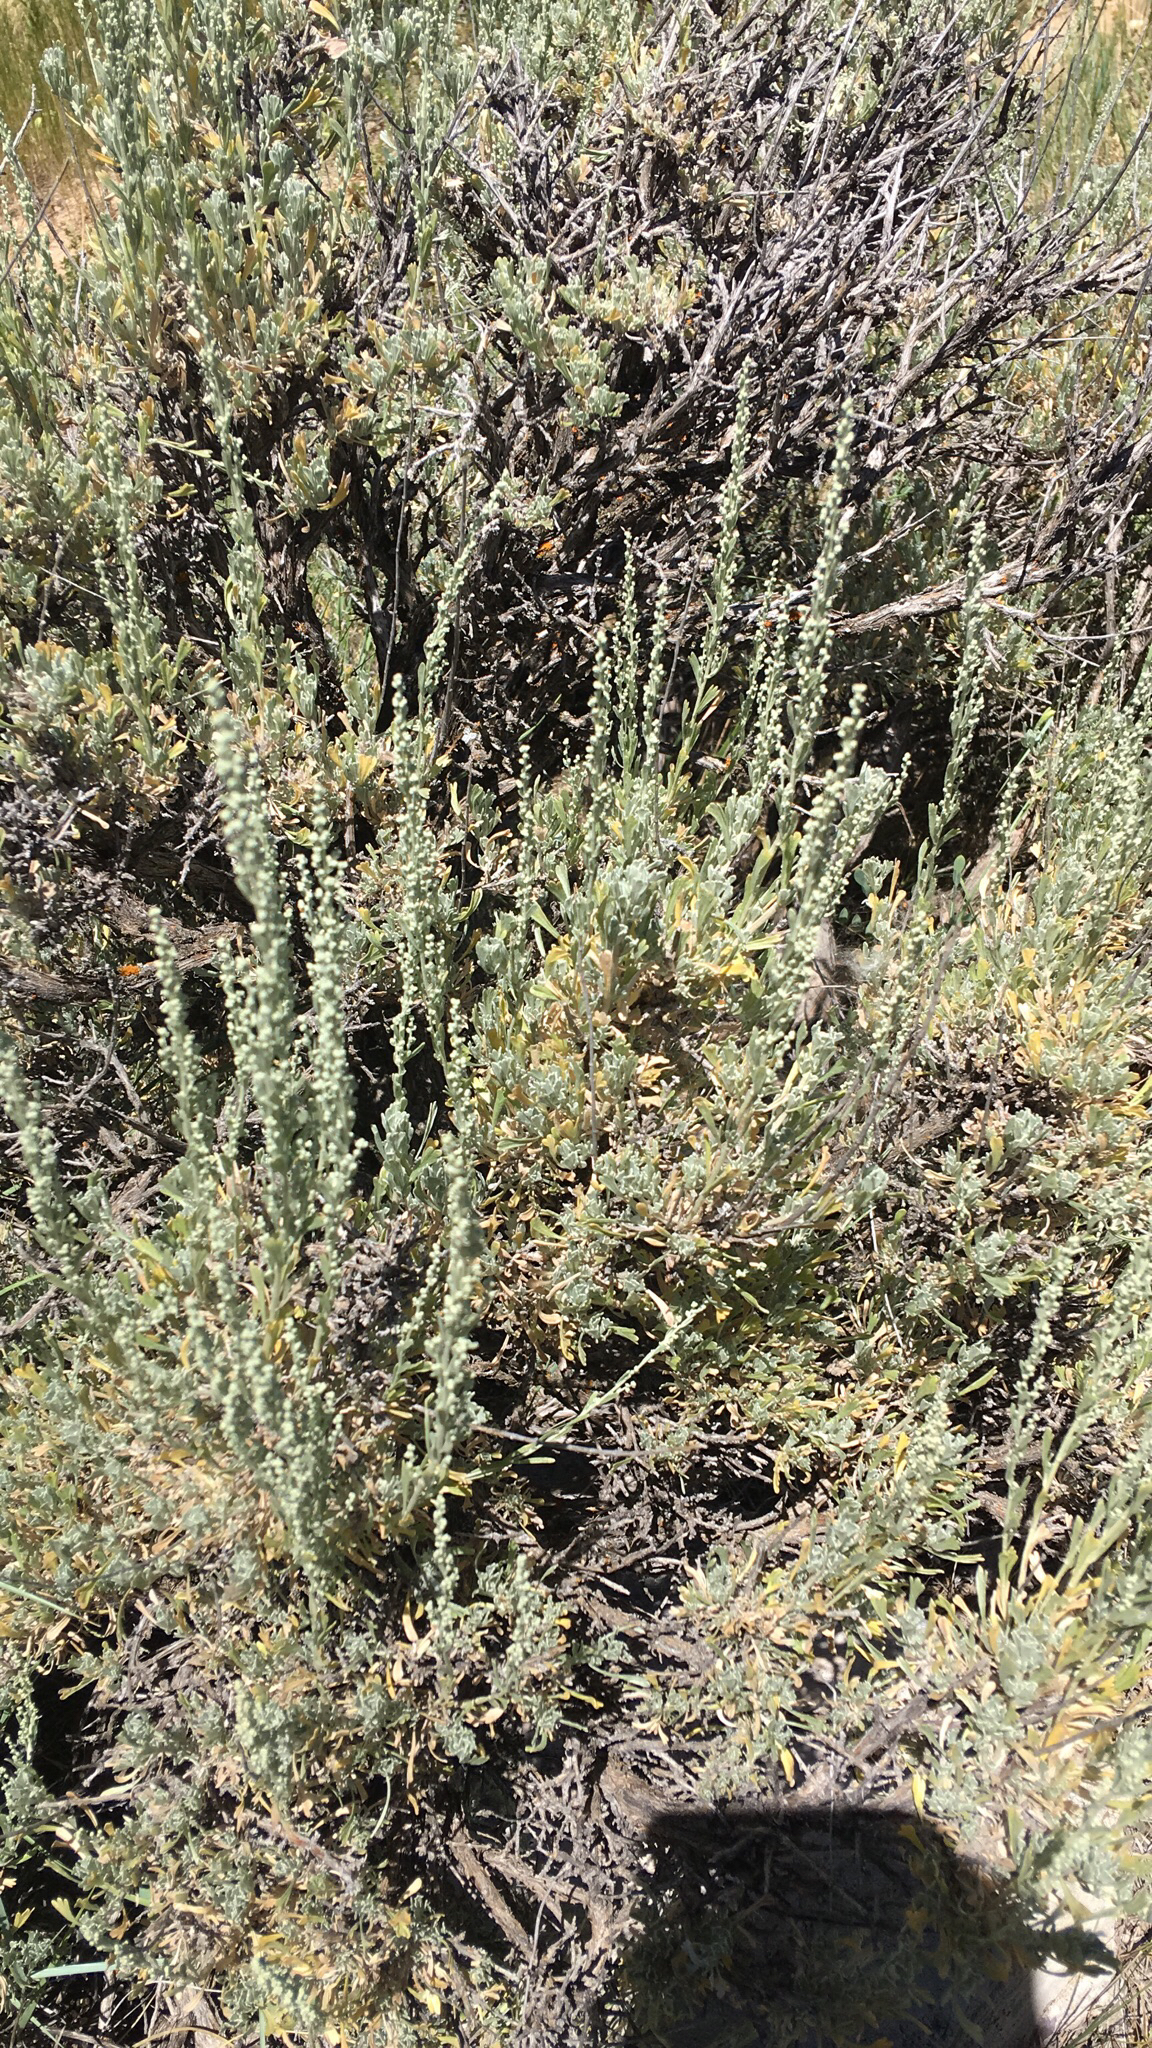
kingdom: Plantae
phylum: Tracheophyta
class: Magnoliopsida
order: Asterales
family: Asteraceae
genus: Artemisia
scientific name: Artemisia tridentata
